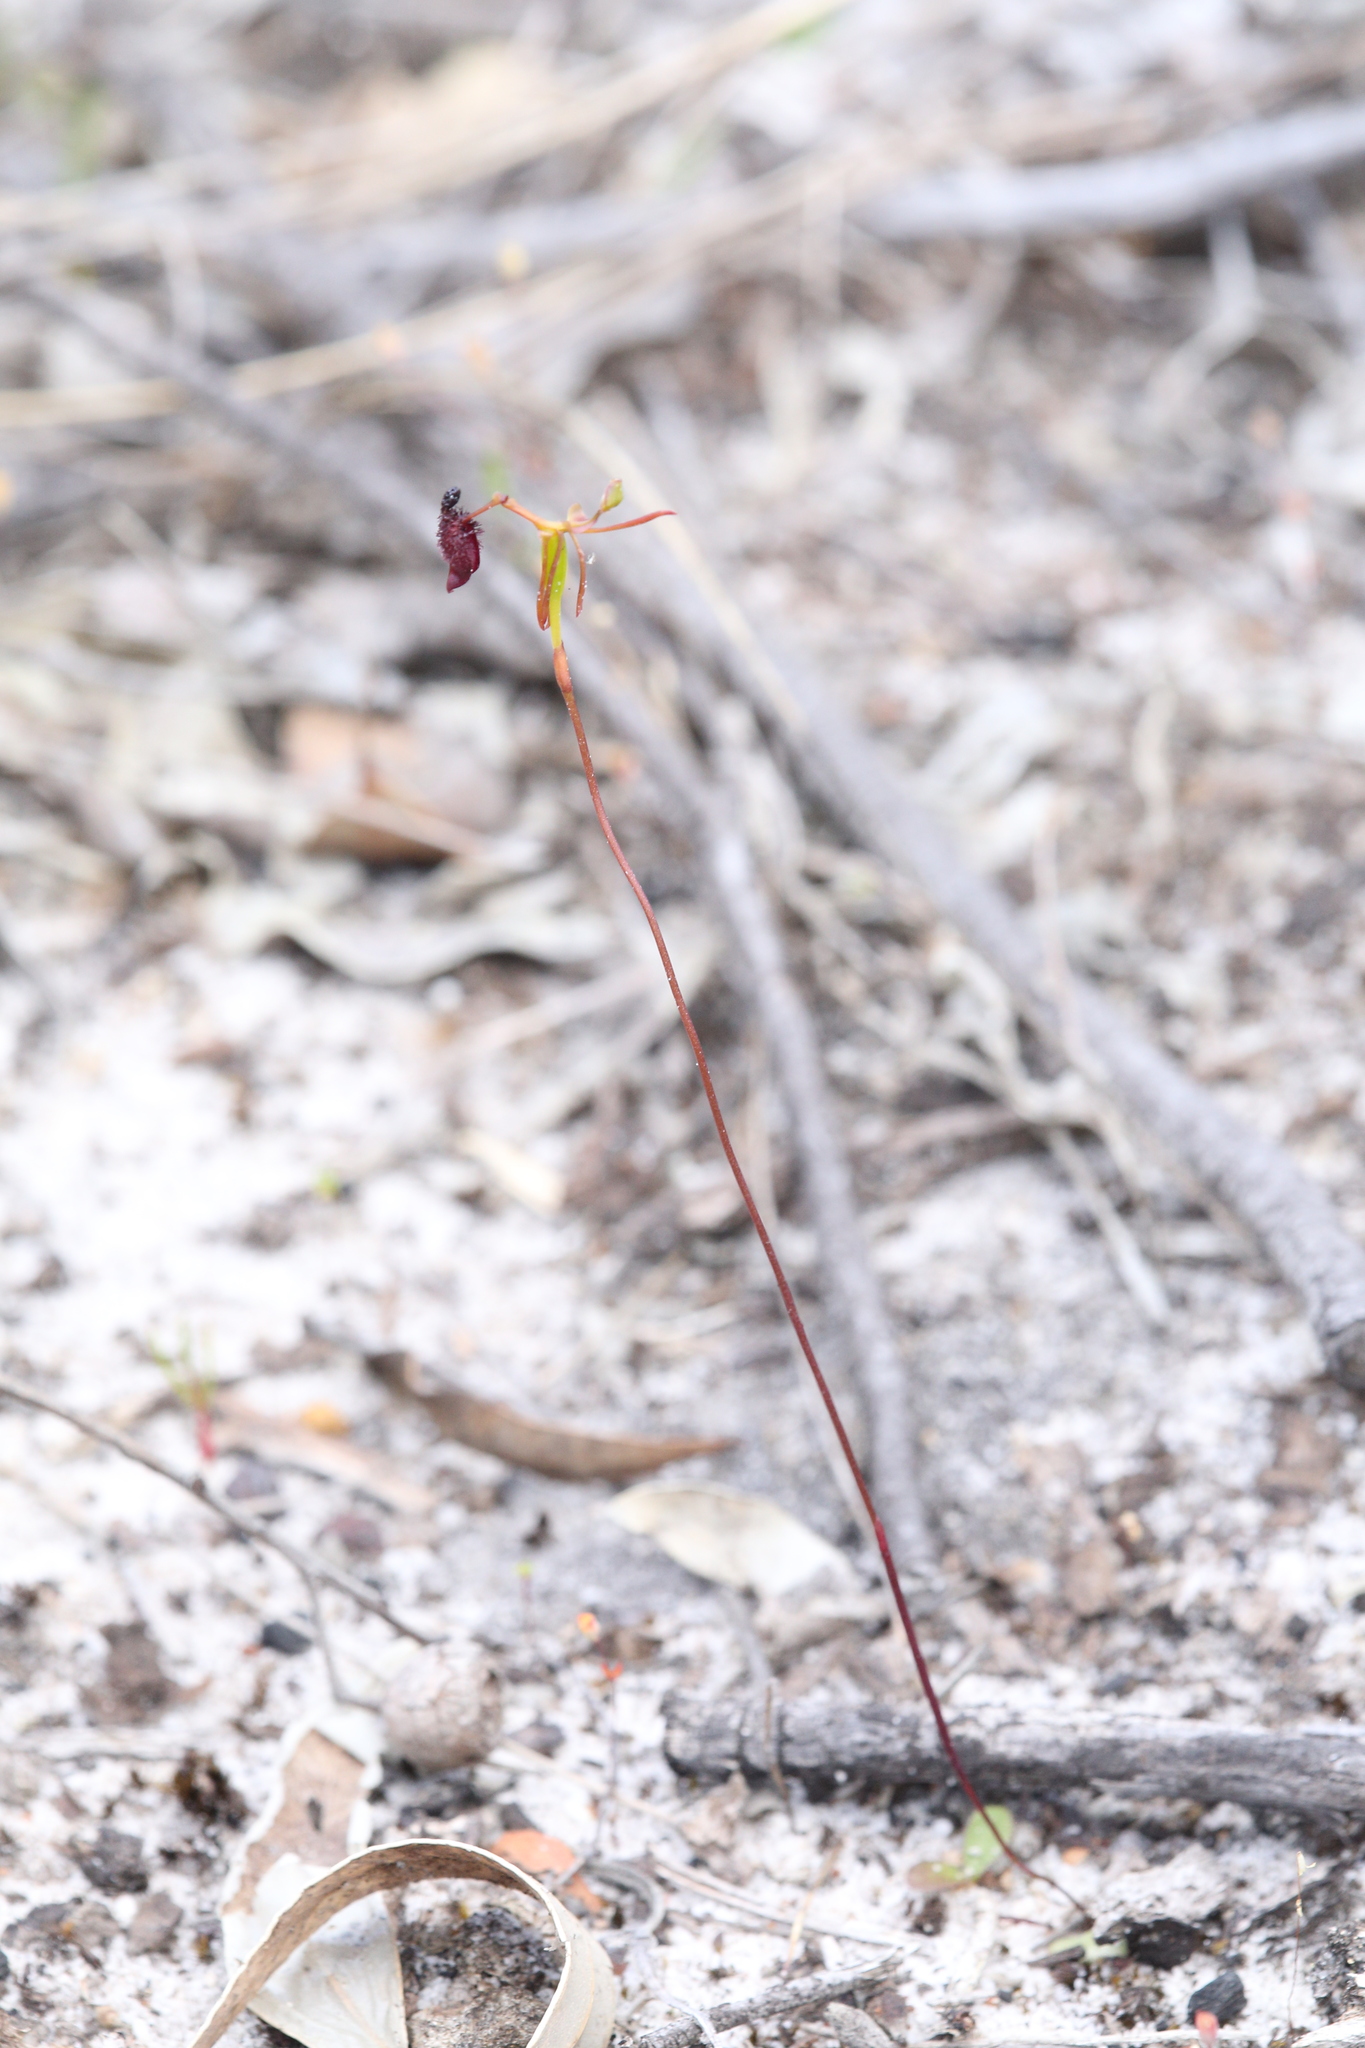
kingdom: Plantae
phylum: Tracheophyta
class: Liliopsida
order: Asparagales
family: Orchidaceae
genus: Drakaea
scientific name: Drakaea glyptodon
